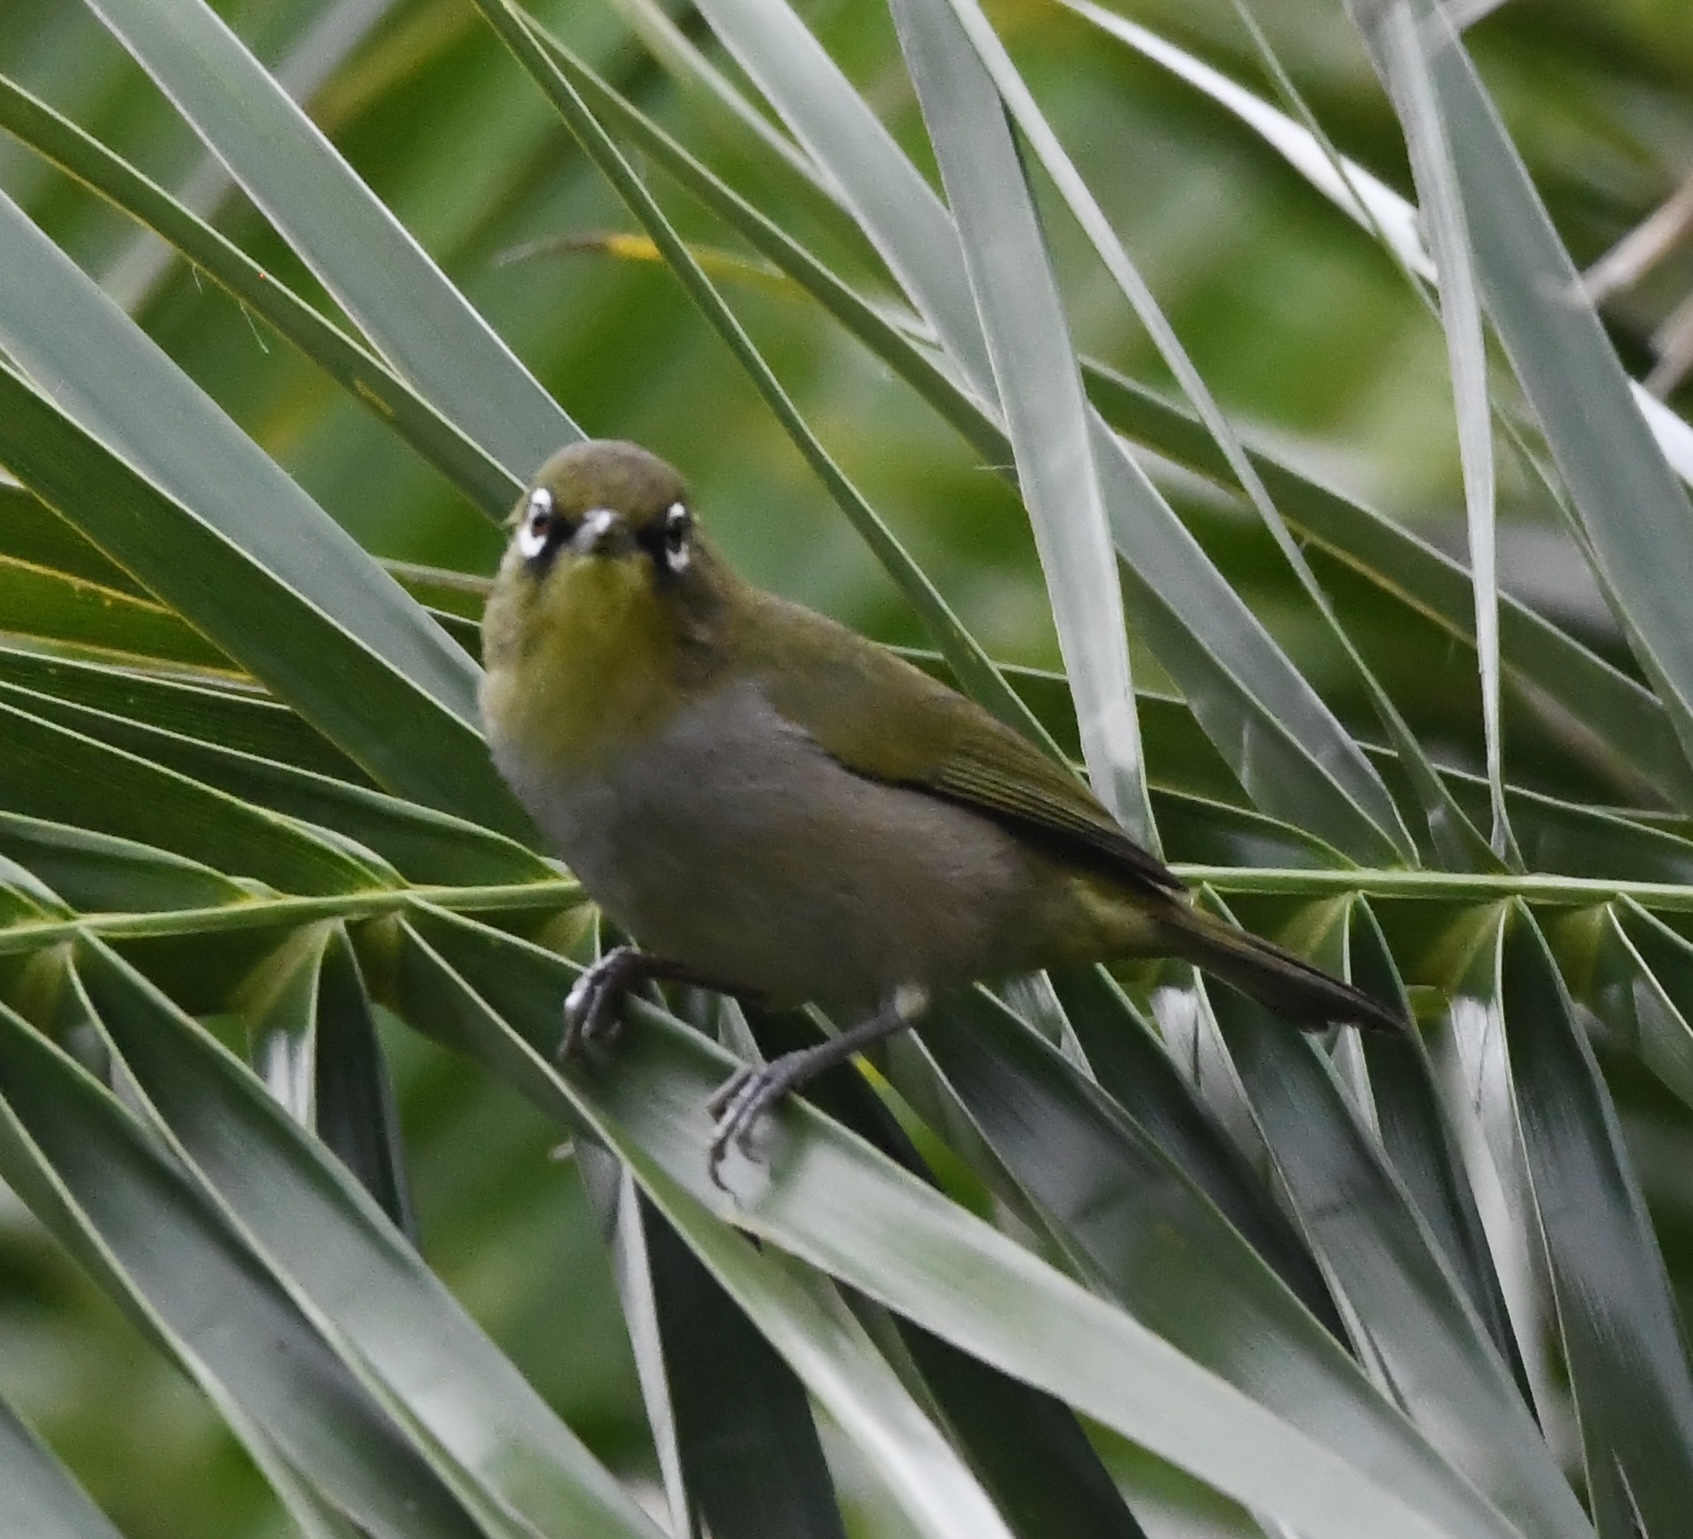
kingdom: Animalia
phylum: Chordata
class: Aves
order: Passeriformes
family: Zosteropidae
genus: Zosterops
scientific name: Zosterops virens
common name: Cape white-eye
